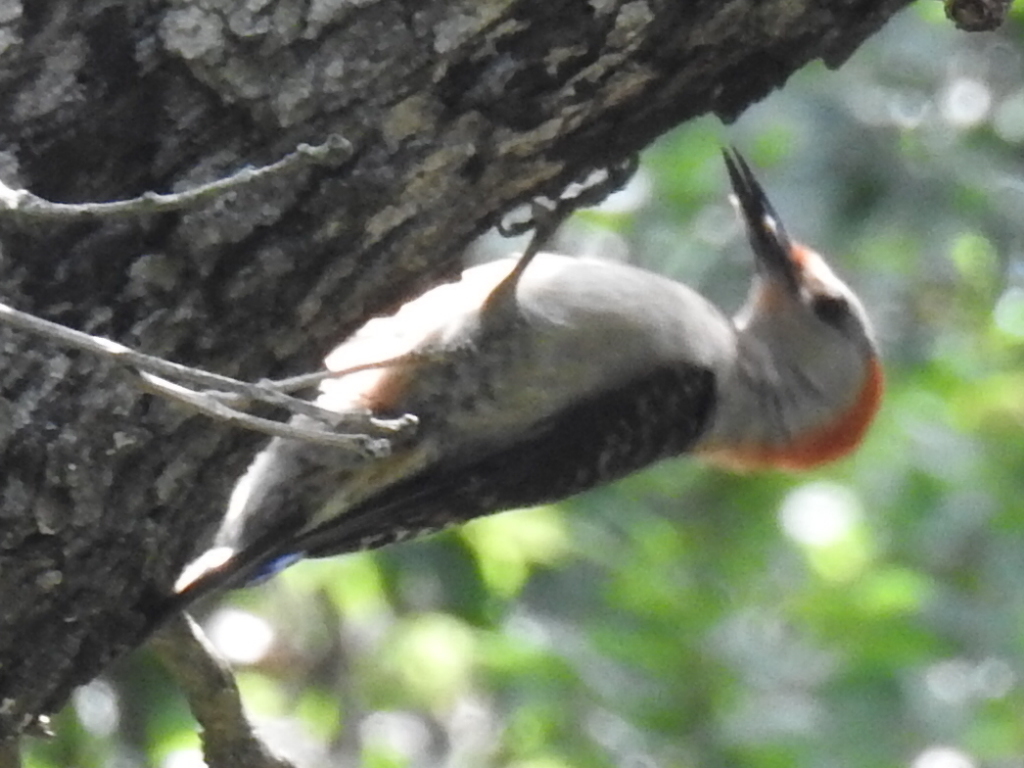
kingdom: Animalia
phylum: Chordata
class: Aves
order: Piciformes
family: Picidae
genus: Melanerpes
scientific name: Melanerpes carolinus
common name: Red-bellied woodpecker
